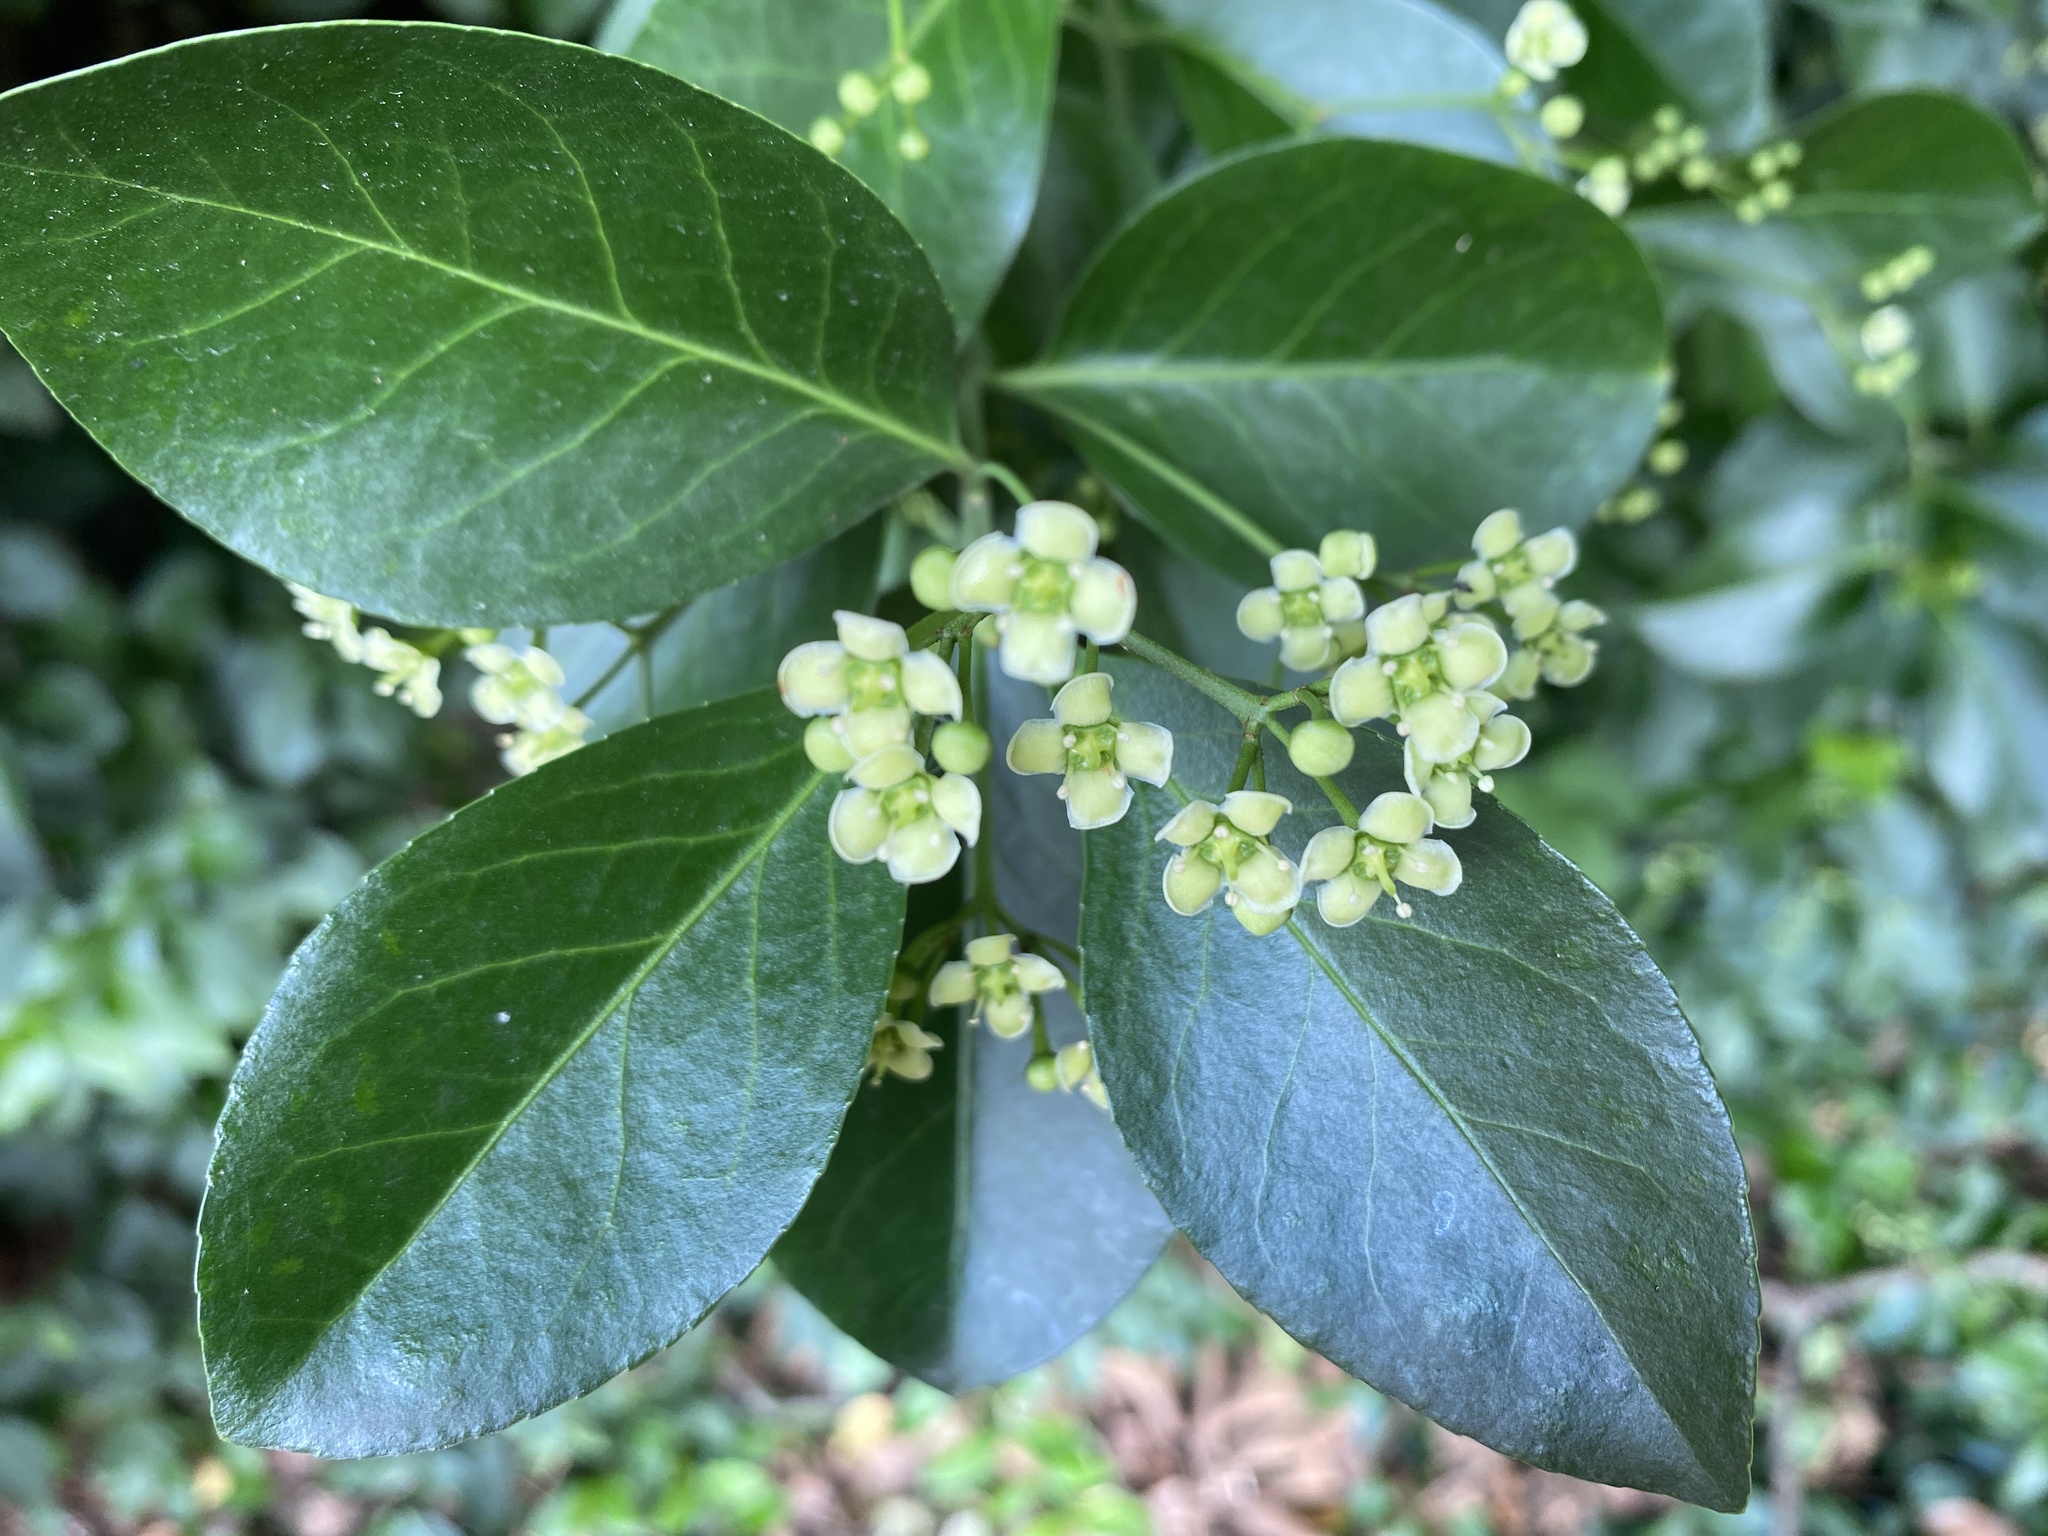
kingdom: Plantae
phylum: Tracheophyta
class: Magnoliopsida
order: Celastrales
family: Celastraceae
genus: Euonymus
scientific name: Euonymus fortunei
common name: Climbing euonymus
